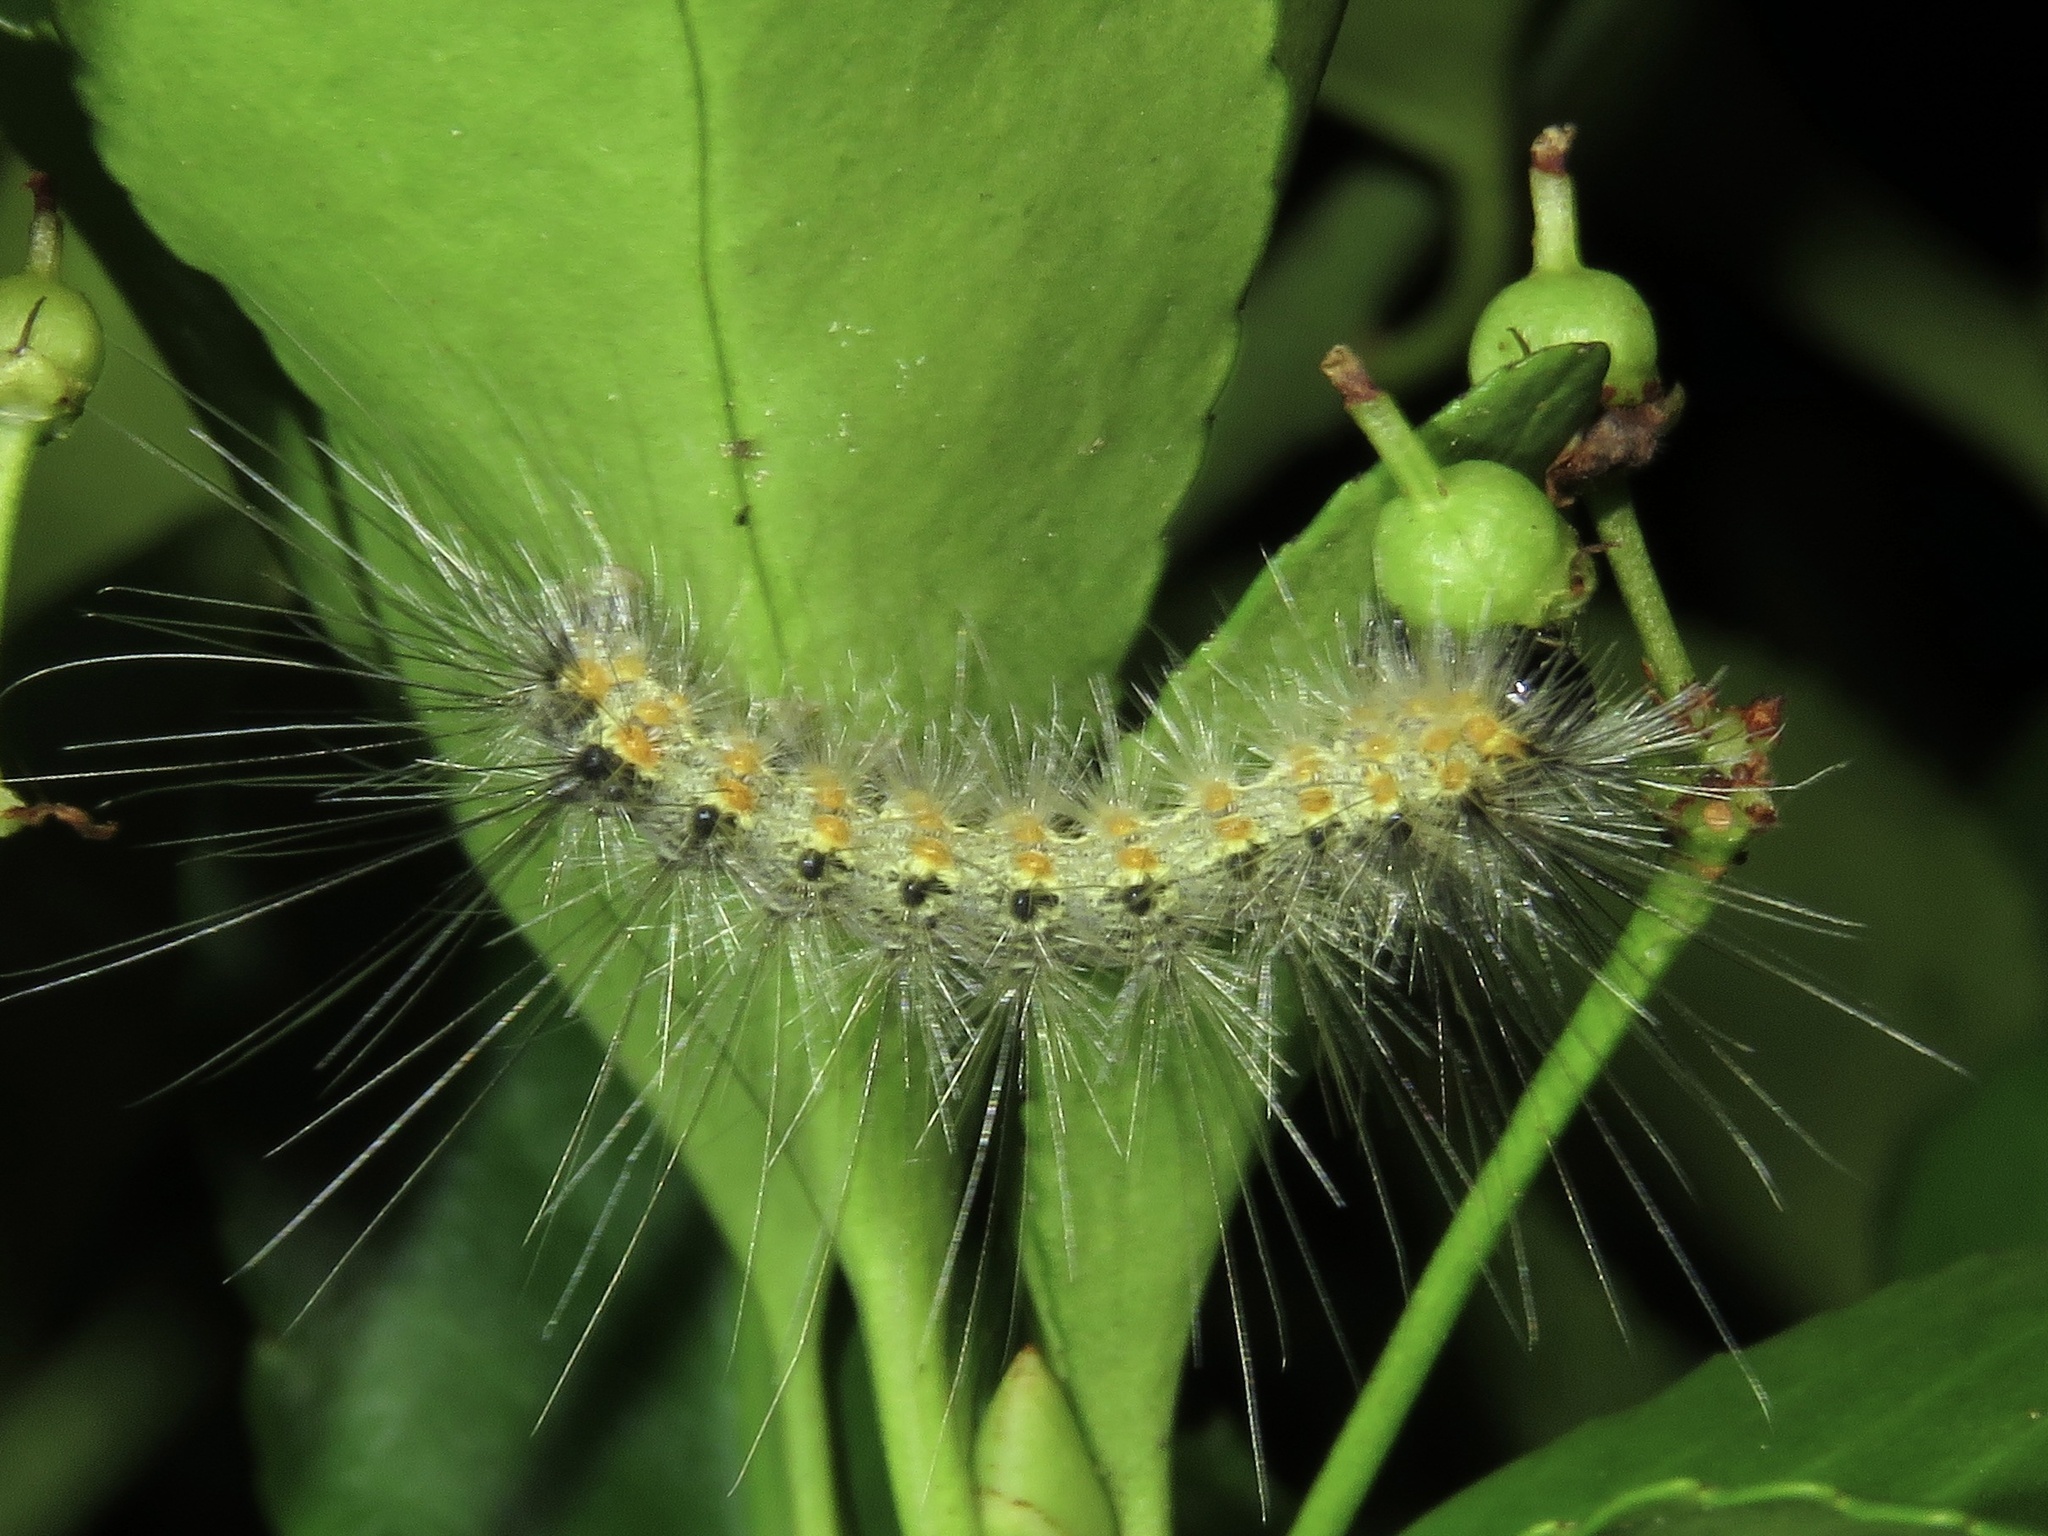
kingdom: Animalia
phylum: Arthropoda
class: Insecta
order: Lepidoptera
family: Erebidae
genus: Hyphantria
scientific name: Hyphantria cunea
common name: American white moth
